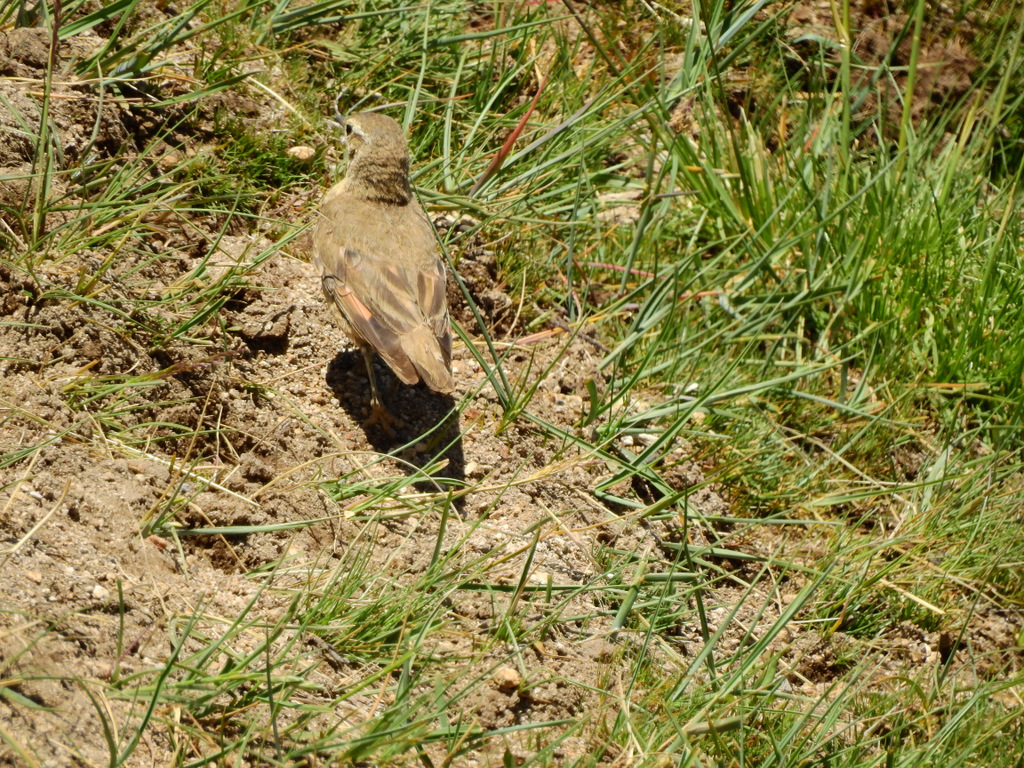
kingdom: Animalia
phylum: Chordata
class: Aves
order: Passeriformes
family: Furnariidae
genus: Geositta
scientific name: Geositta rufipennis
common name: Rufous-banded miner
